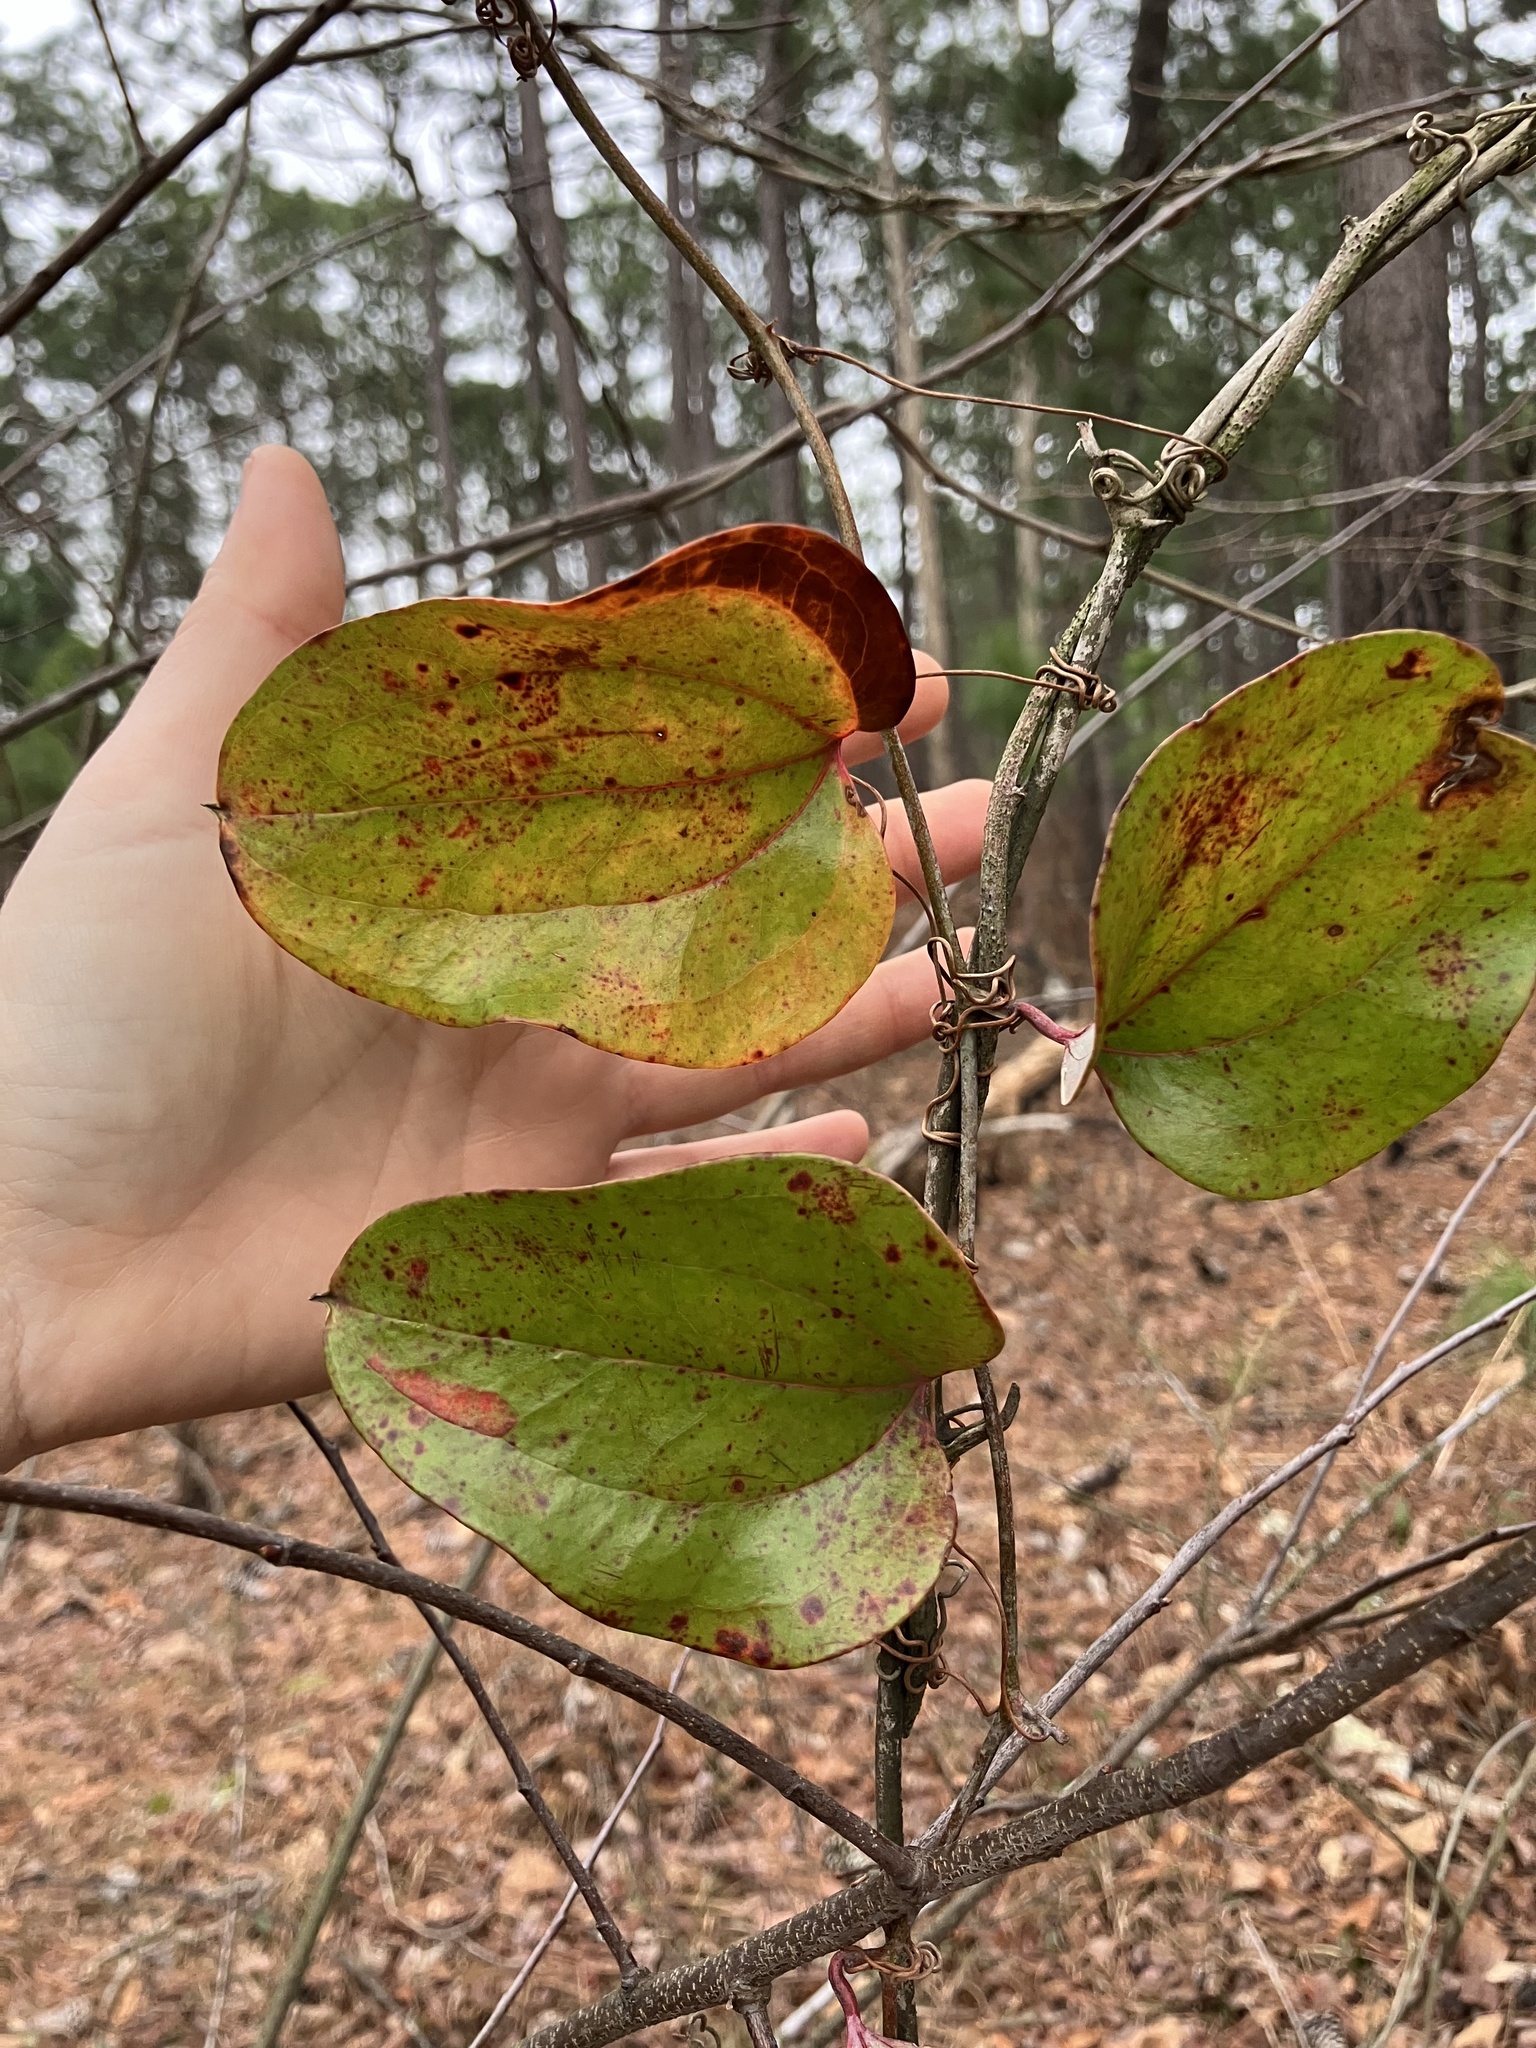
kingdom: Plantae
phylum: Tracheophyta
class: Liliopsida
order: Liliales
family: Smilacaceae
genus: Smilax
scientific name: Smilax glauca
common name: Cat greenbrier
